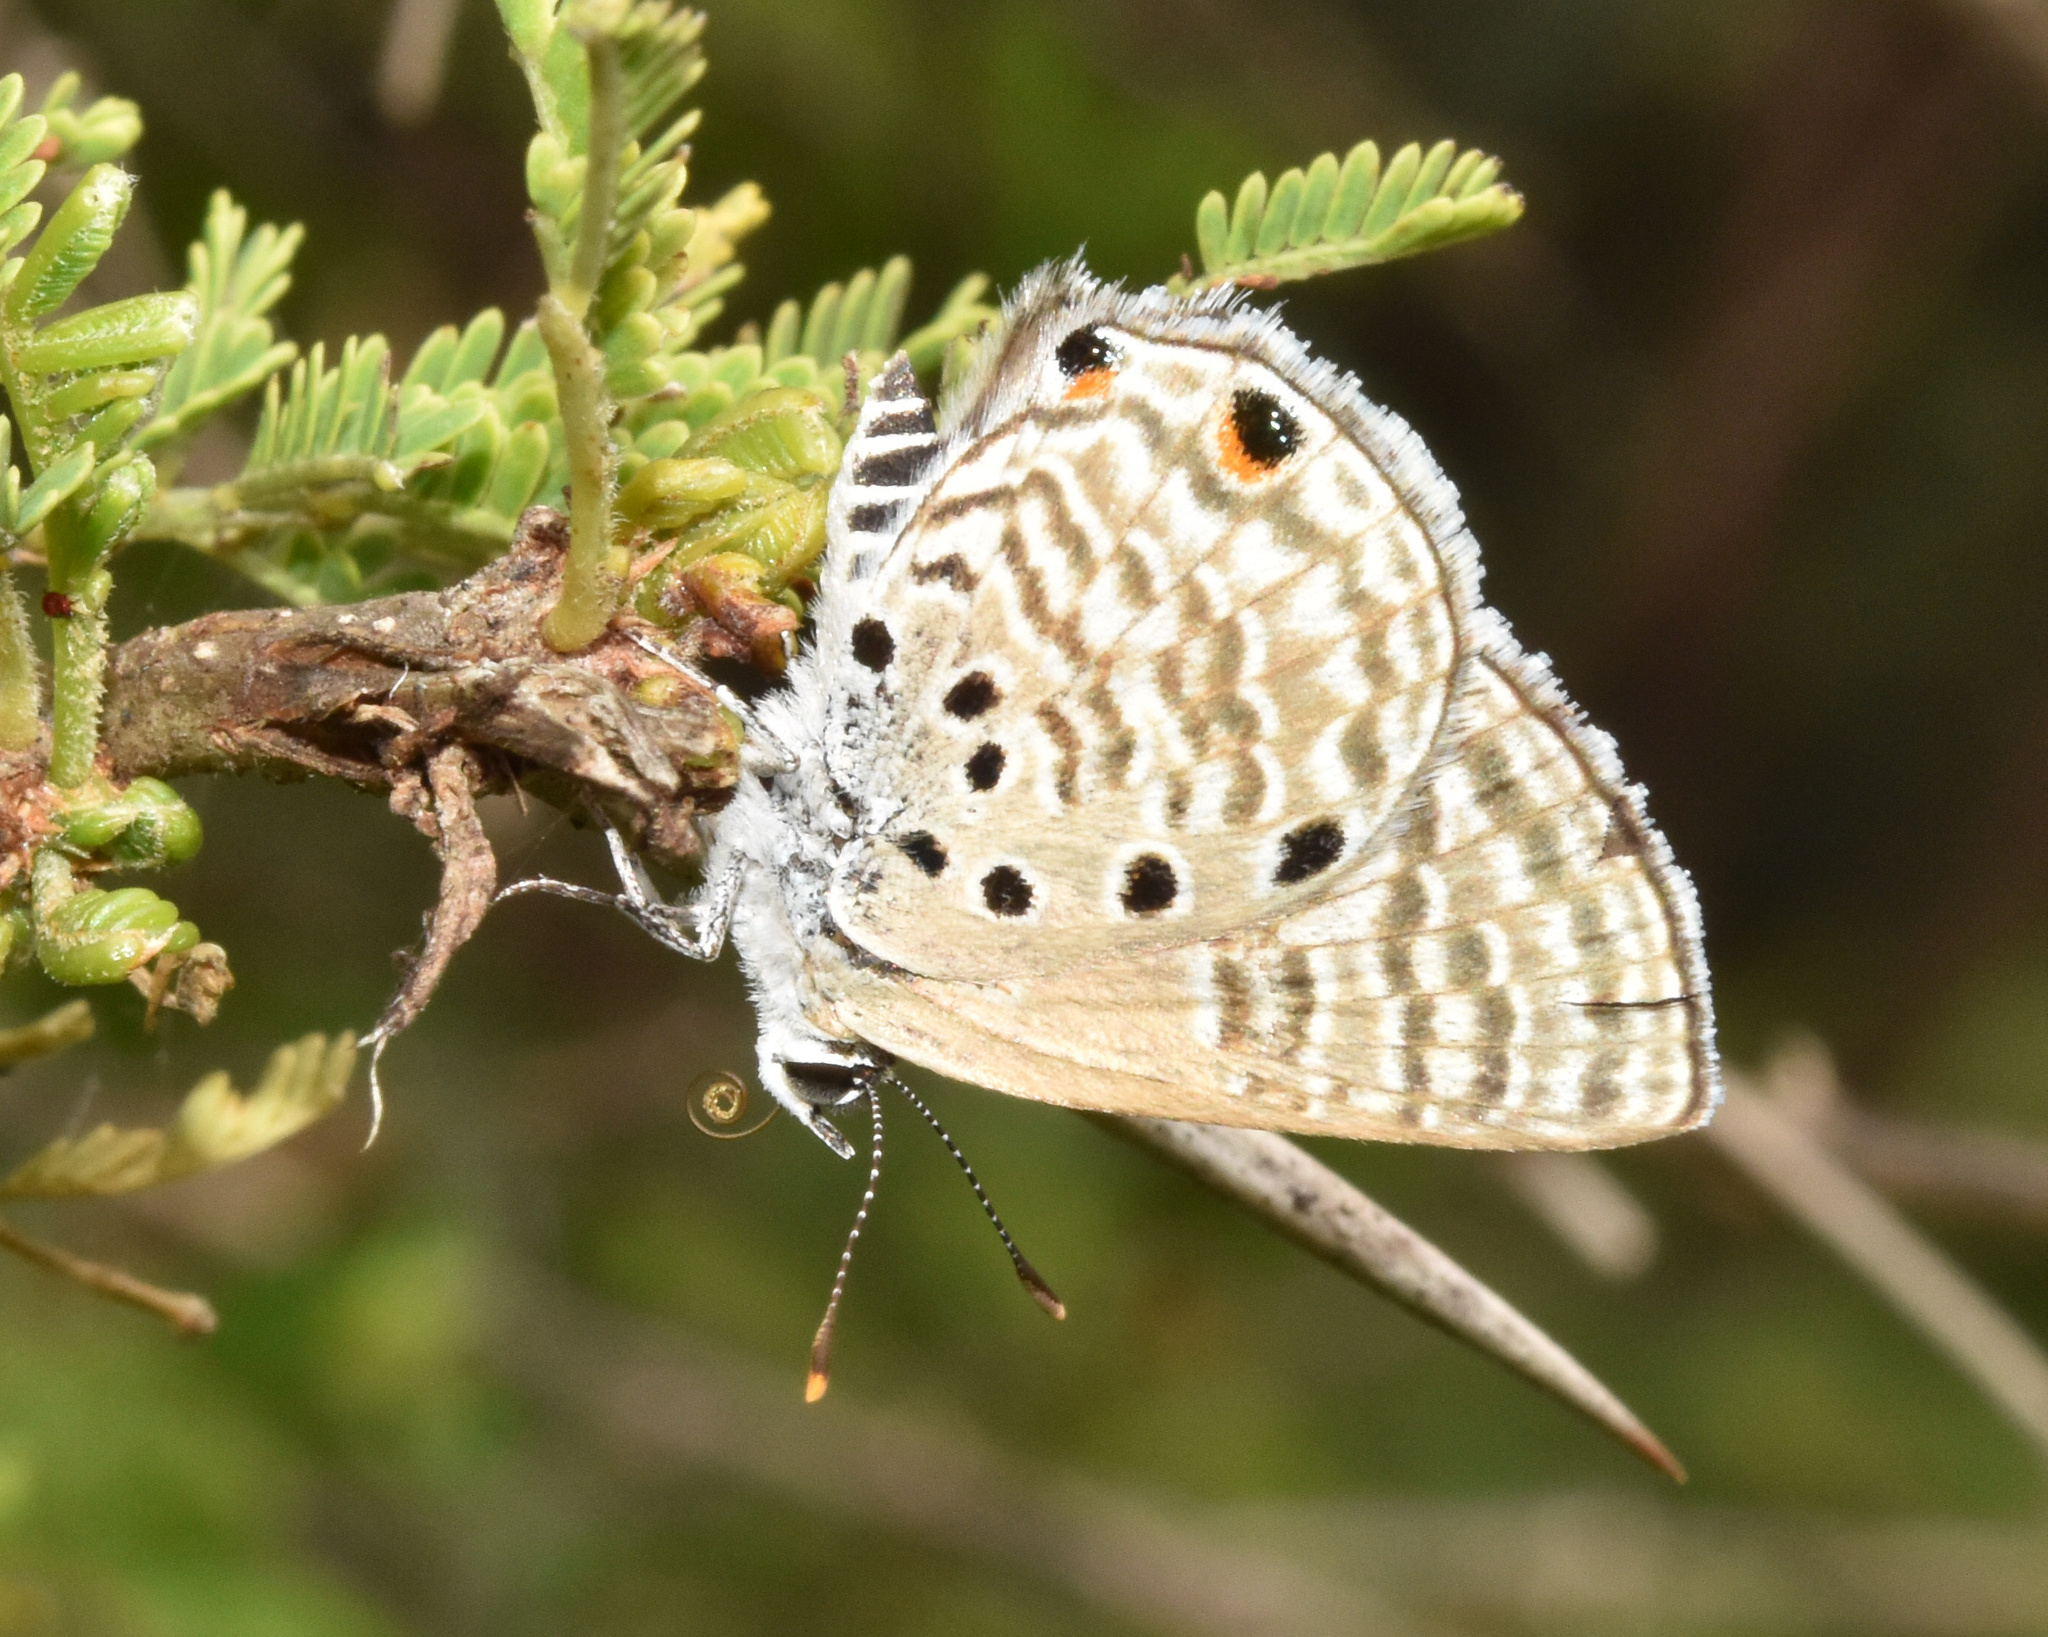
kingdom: Animalia
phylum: Arthropoda
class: Insecta
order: Lepidoptera
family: Lycaenidae
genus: Anthene
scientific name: Anthene amarah
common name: Black-striped hairtail
